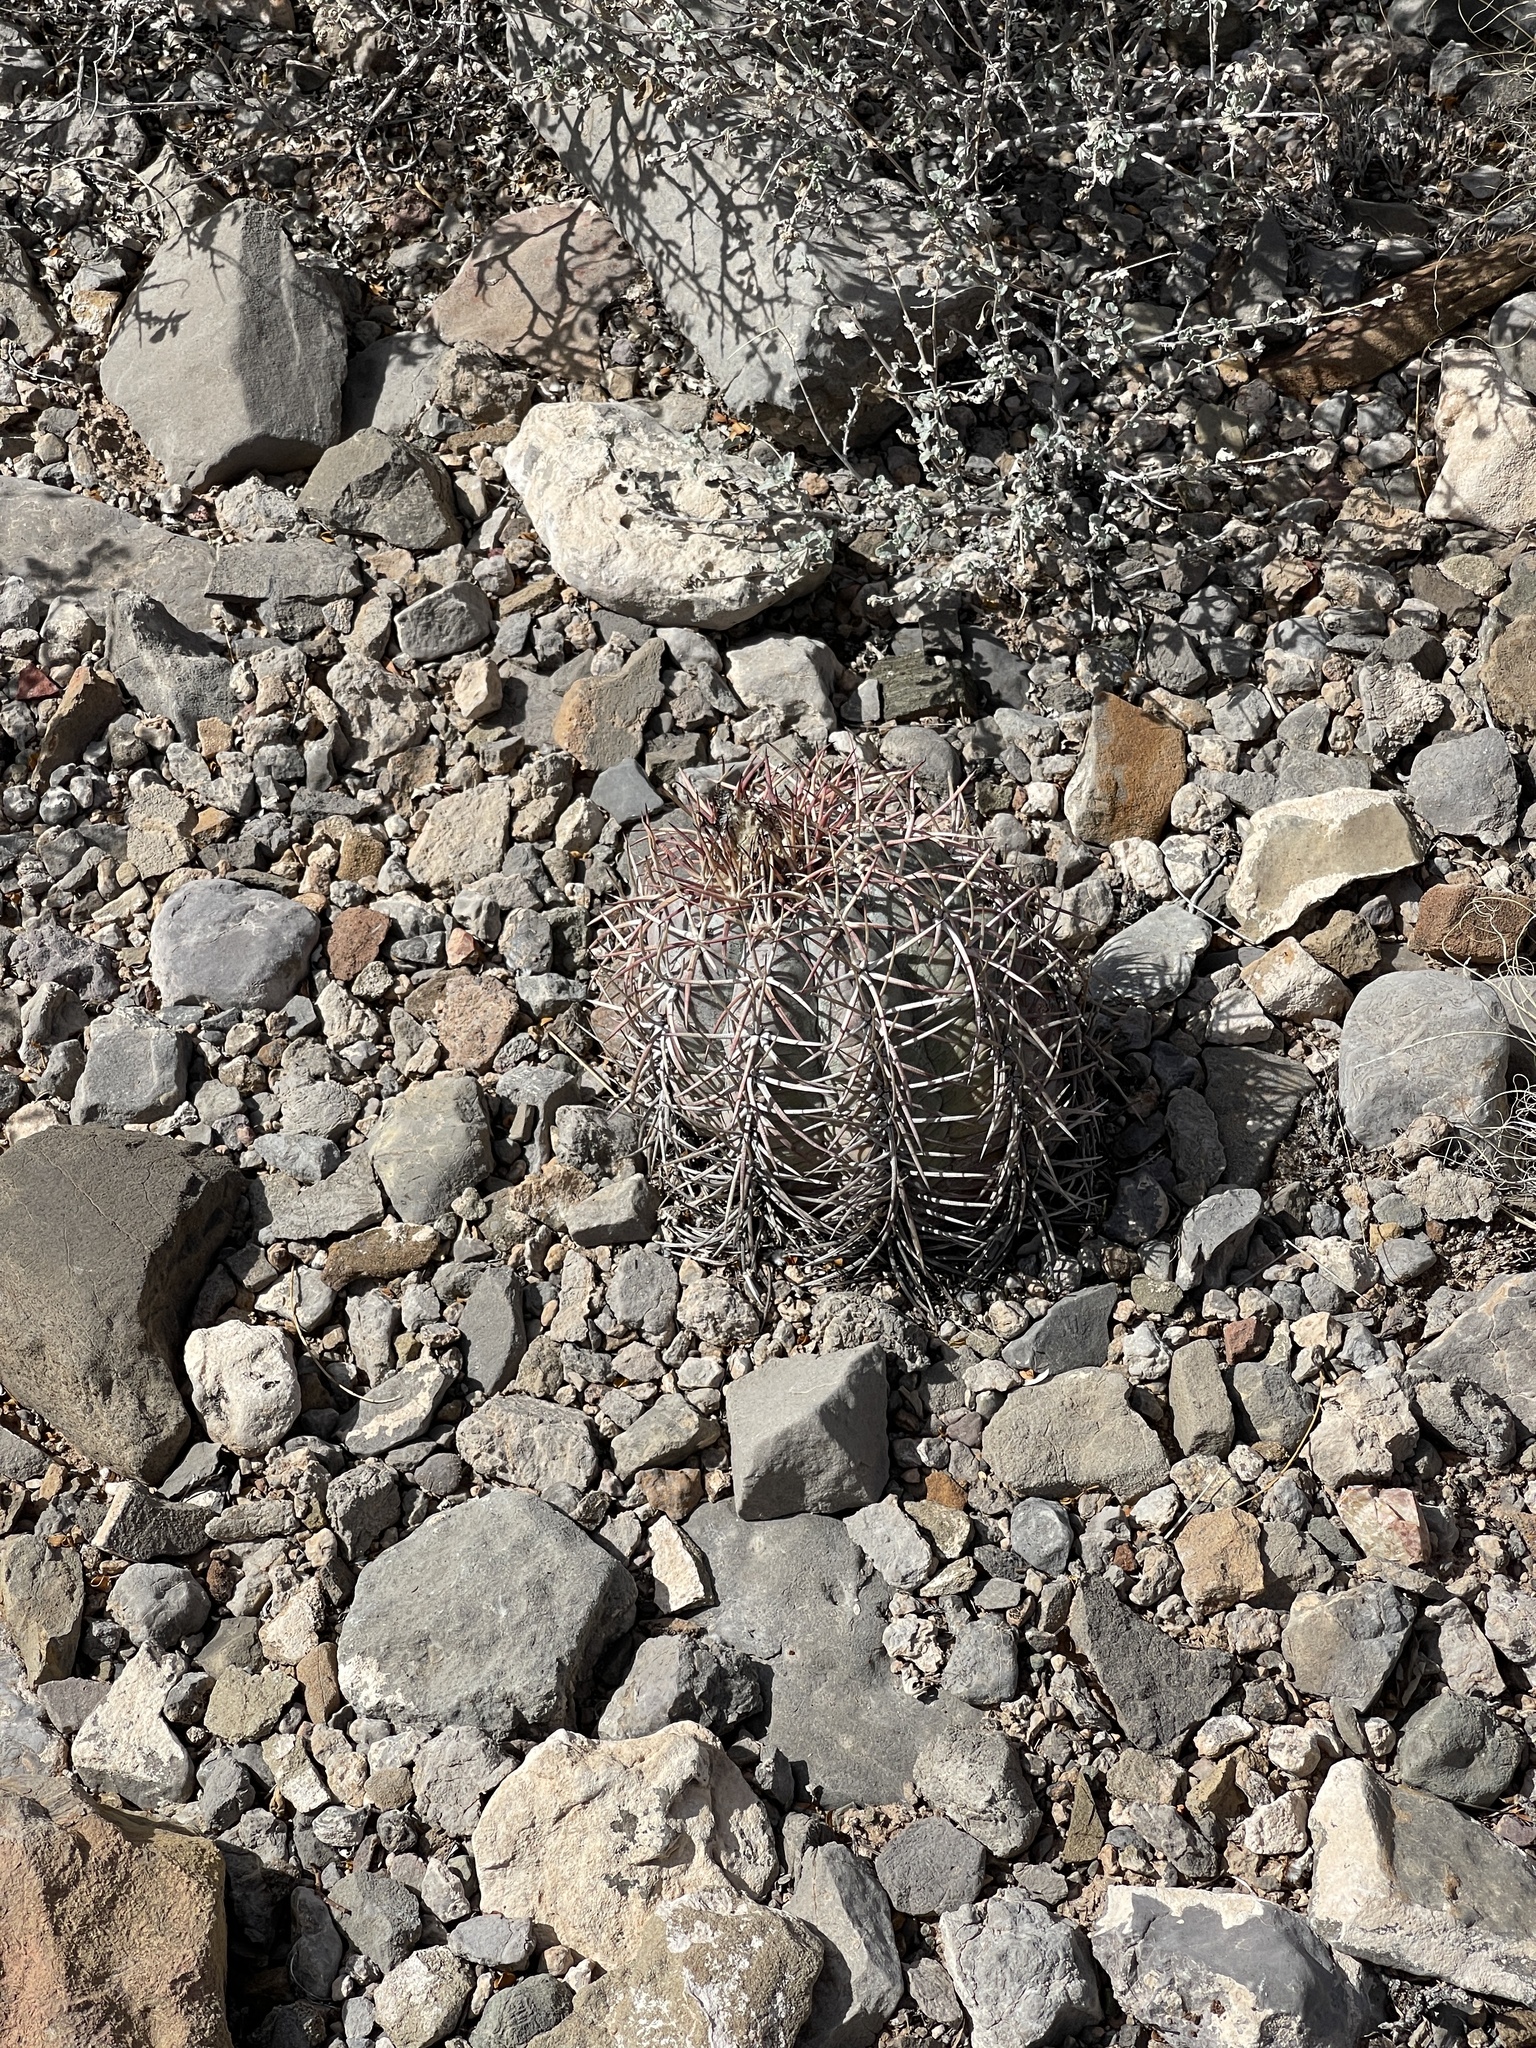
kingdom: Plantae
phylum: Tracheophyta
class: Magnoliopsida
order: Caryophyllales
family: Cactaceae
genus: Echinocactus
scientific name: Echinocactus horizonthalonius
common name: Devilshead
